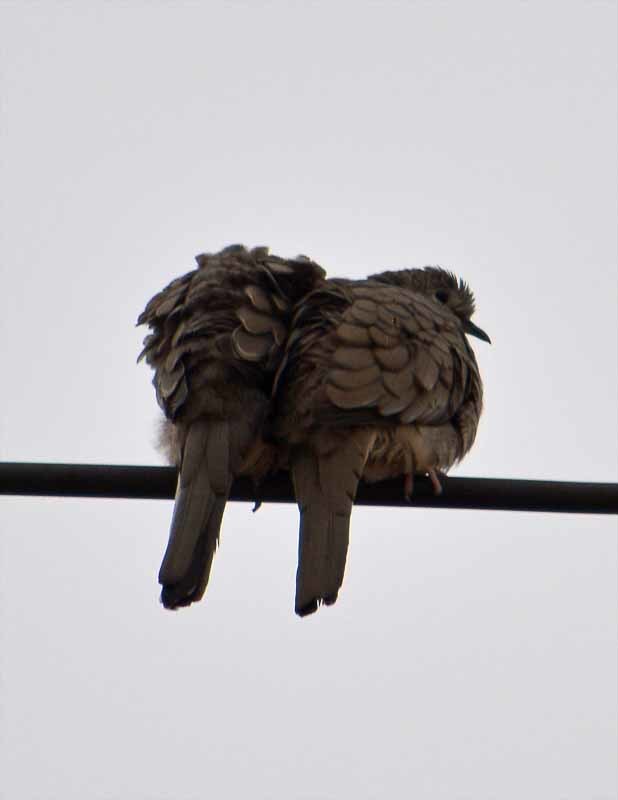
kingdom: Animalia
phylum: Chordata
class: Aves
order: Columbiformes
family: Columbidae
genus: Columbina
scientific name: Columbina inca
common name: Inca dove
